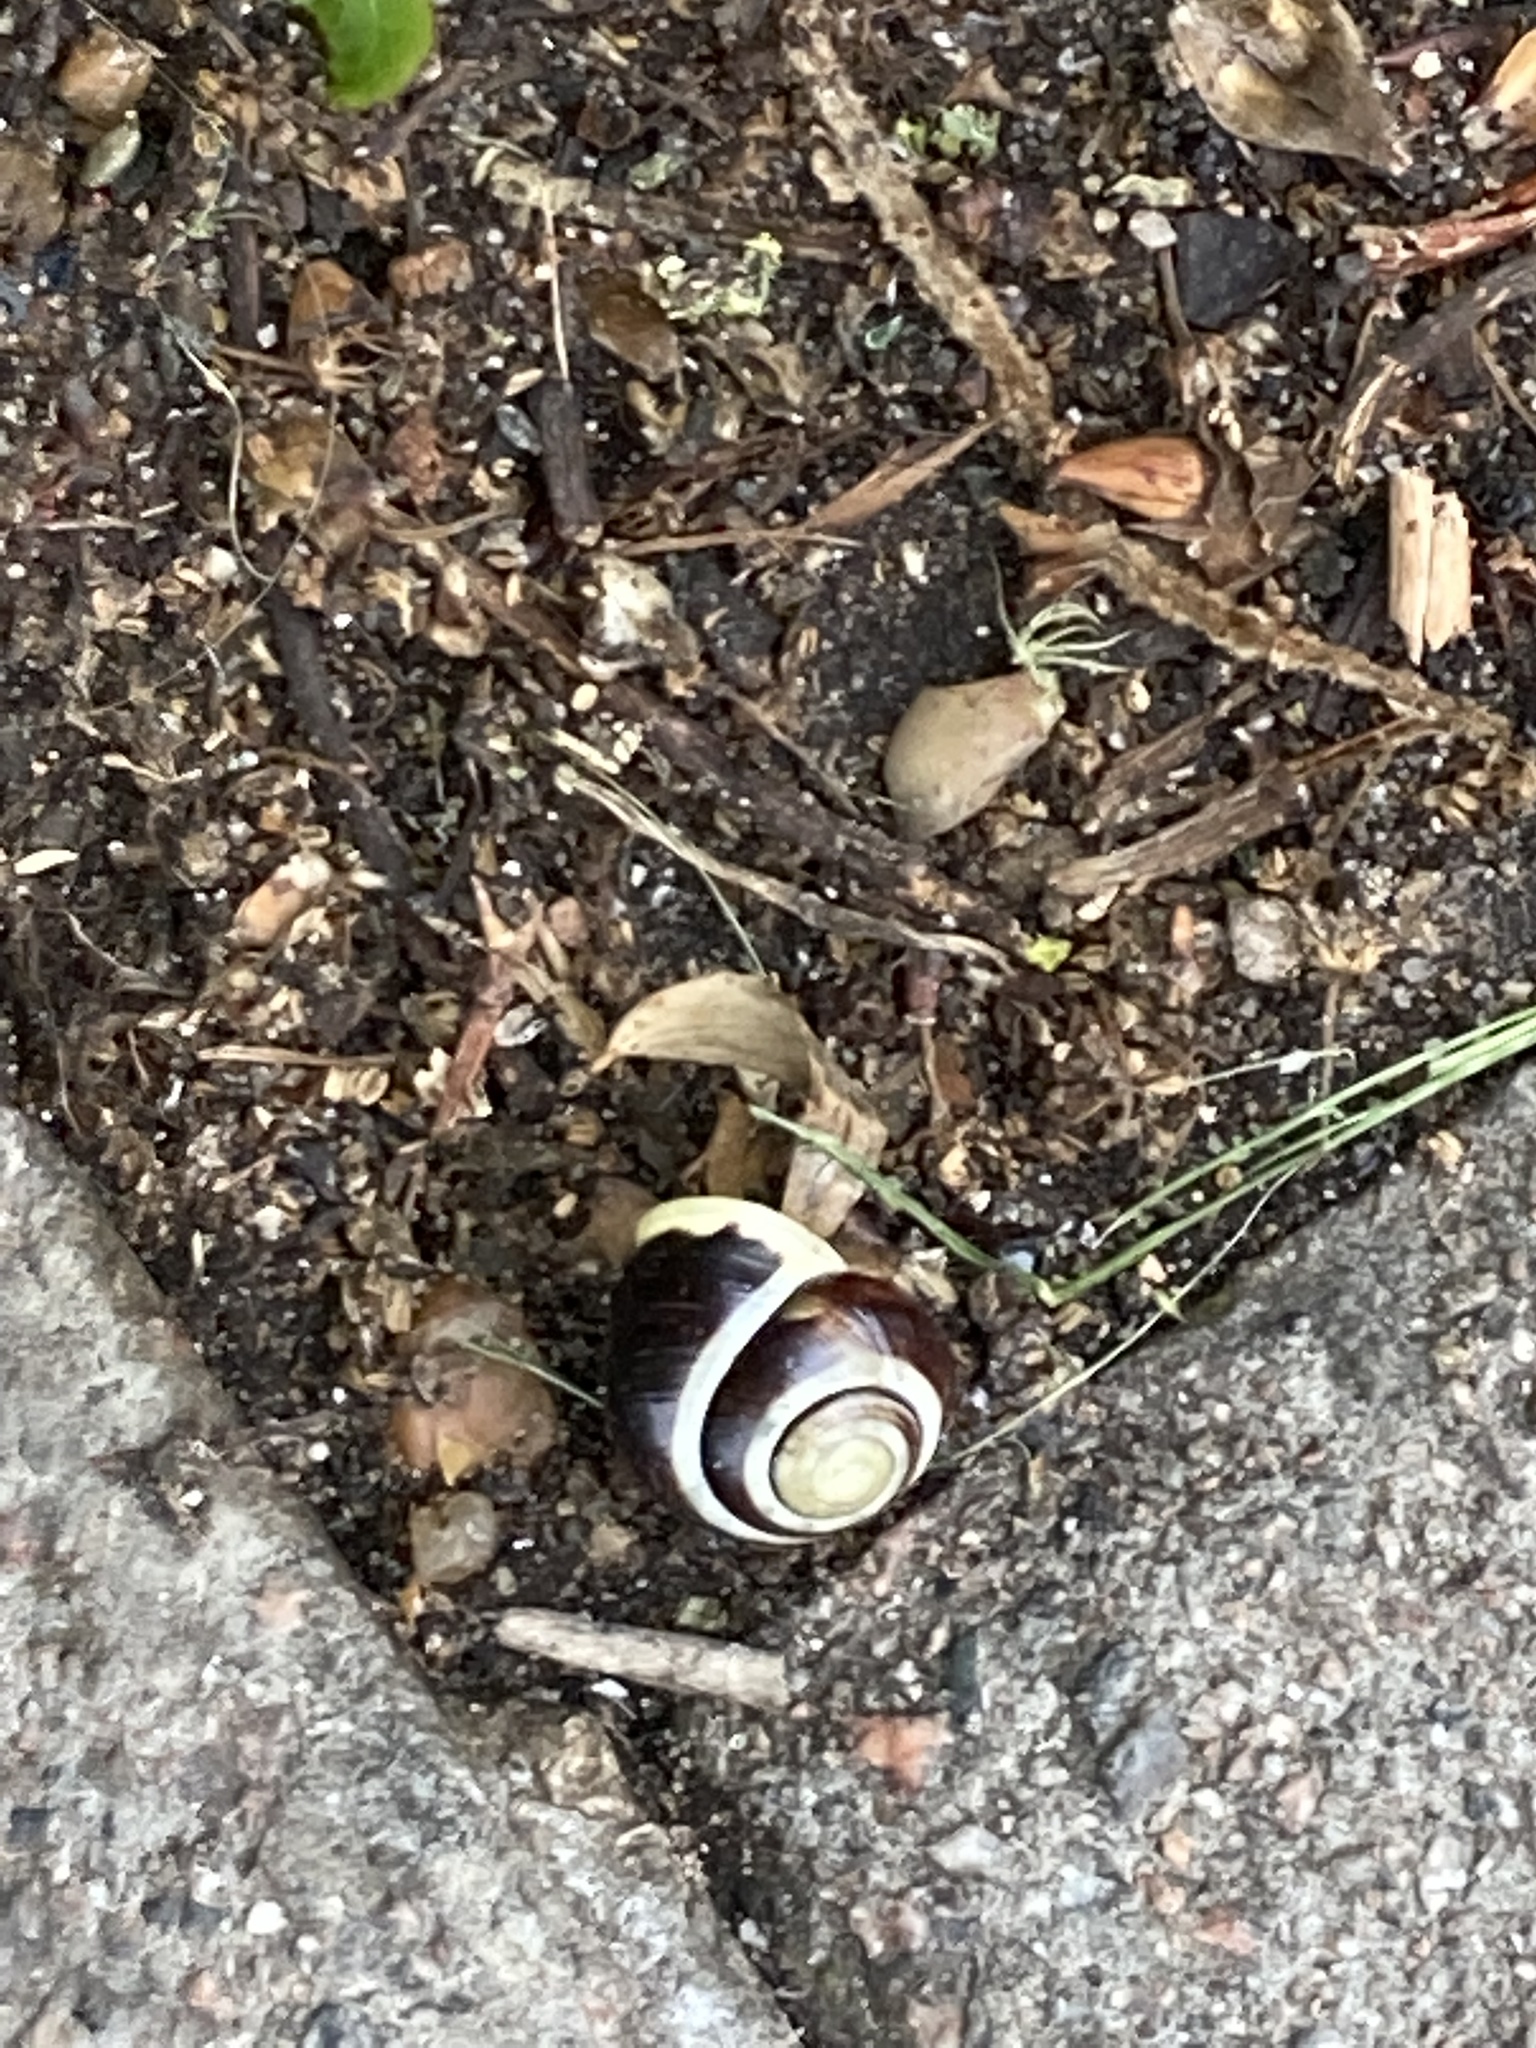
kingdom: Animalia
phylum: Mollusca
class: Gastropoda
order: Stylommatophora
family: Helicidae
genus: Cepaea
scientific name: Cepaea hortensis
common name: White-lip gardensnail
